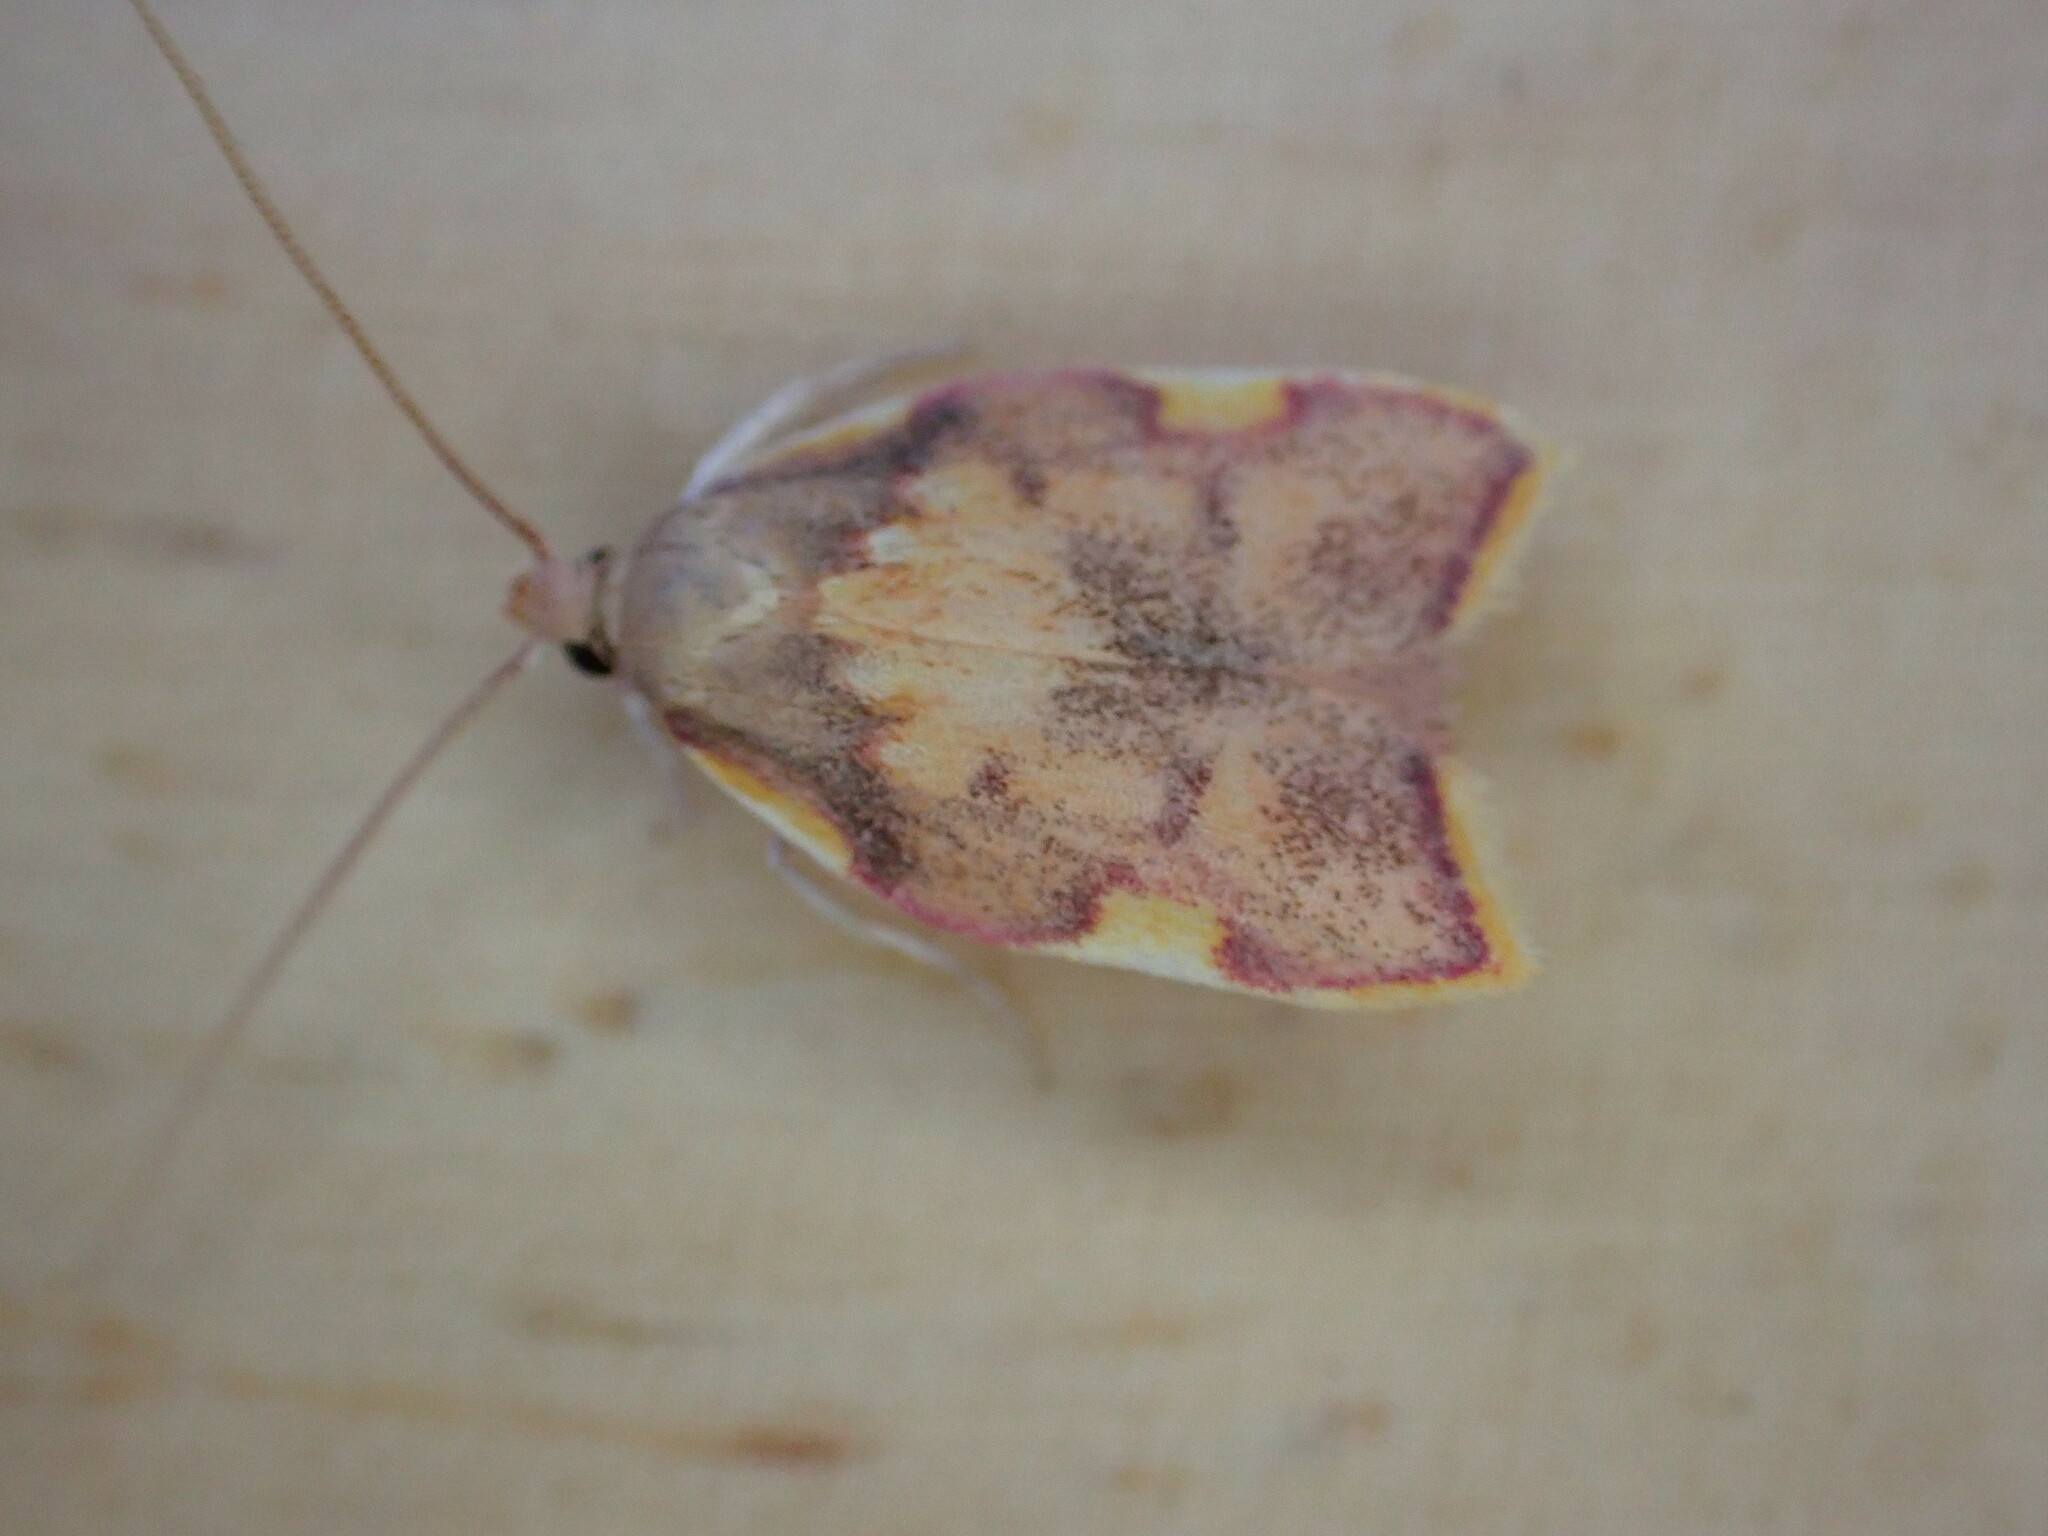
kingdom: Animalia
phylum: Arthropoda
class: Insecta
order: Lepidoptera
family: Peleopodidae
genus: Carcina
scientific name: Carcina quercana
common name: Moth
